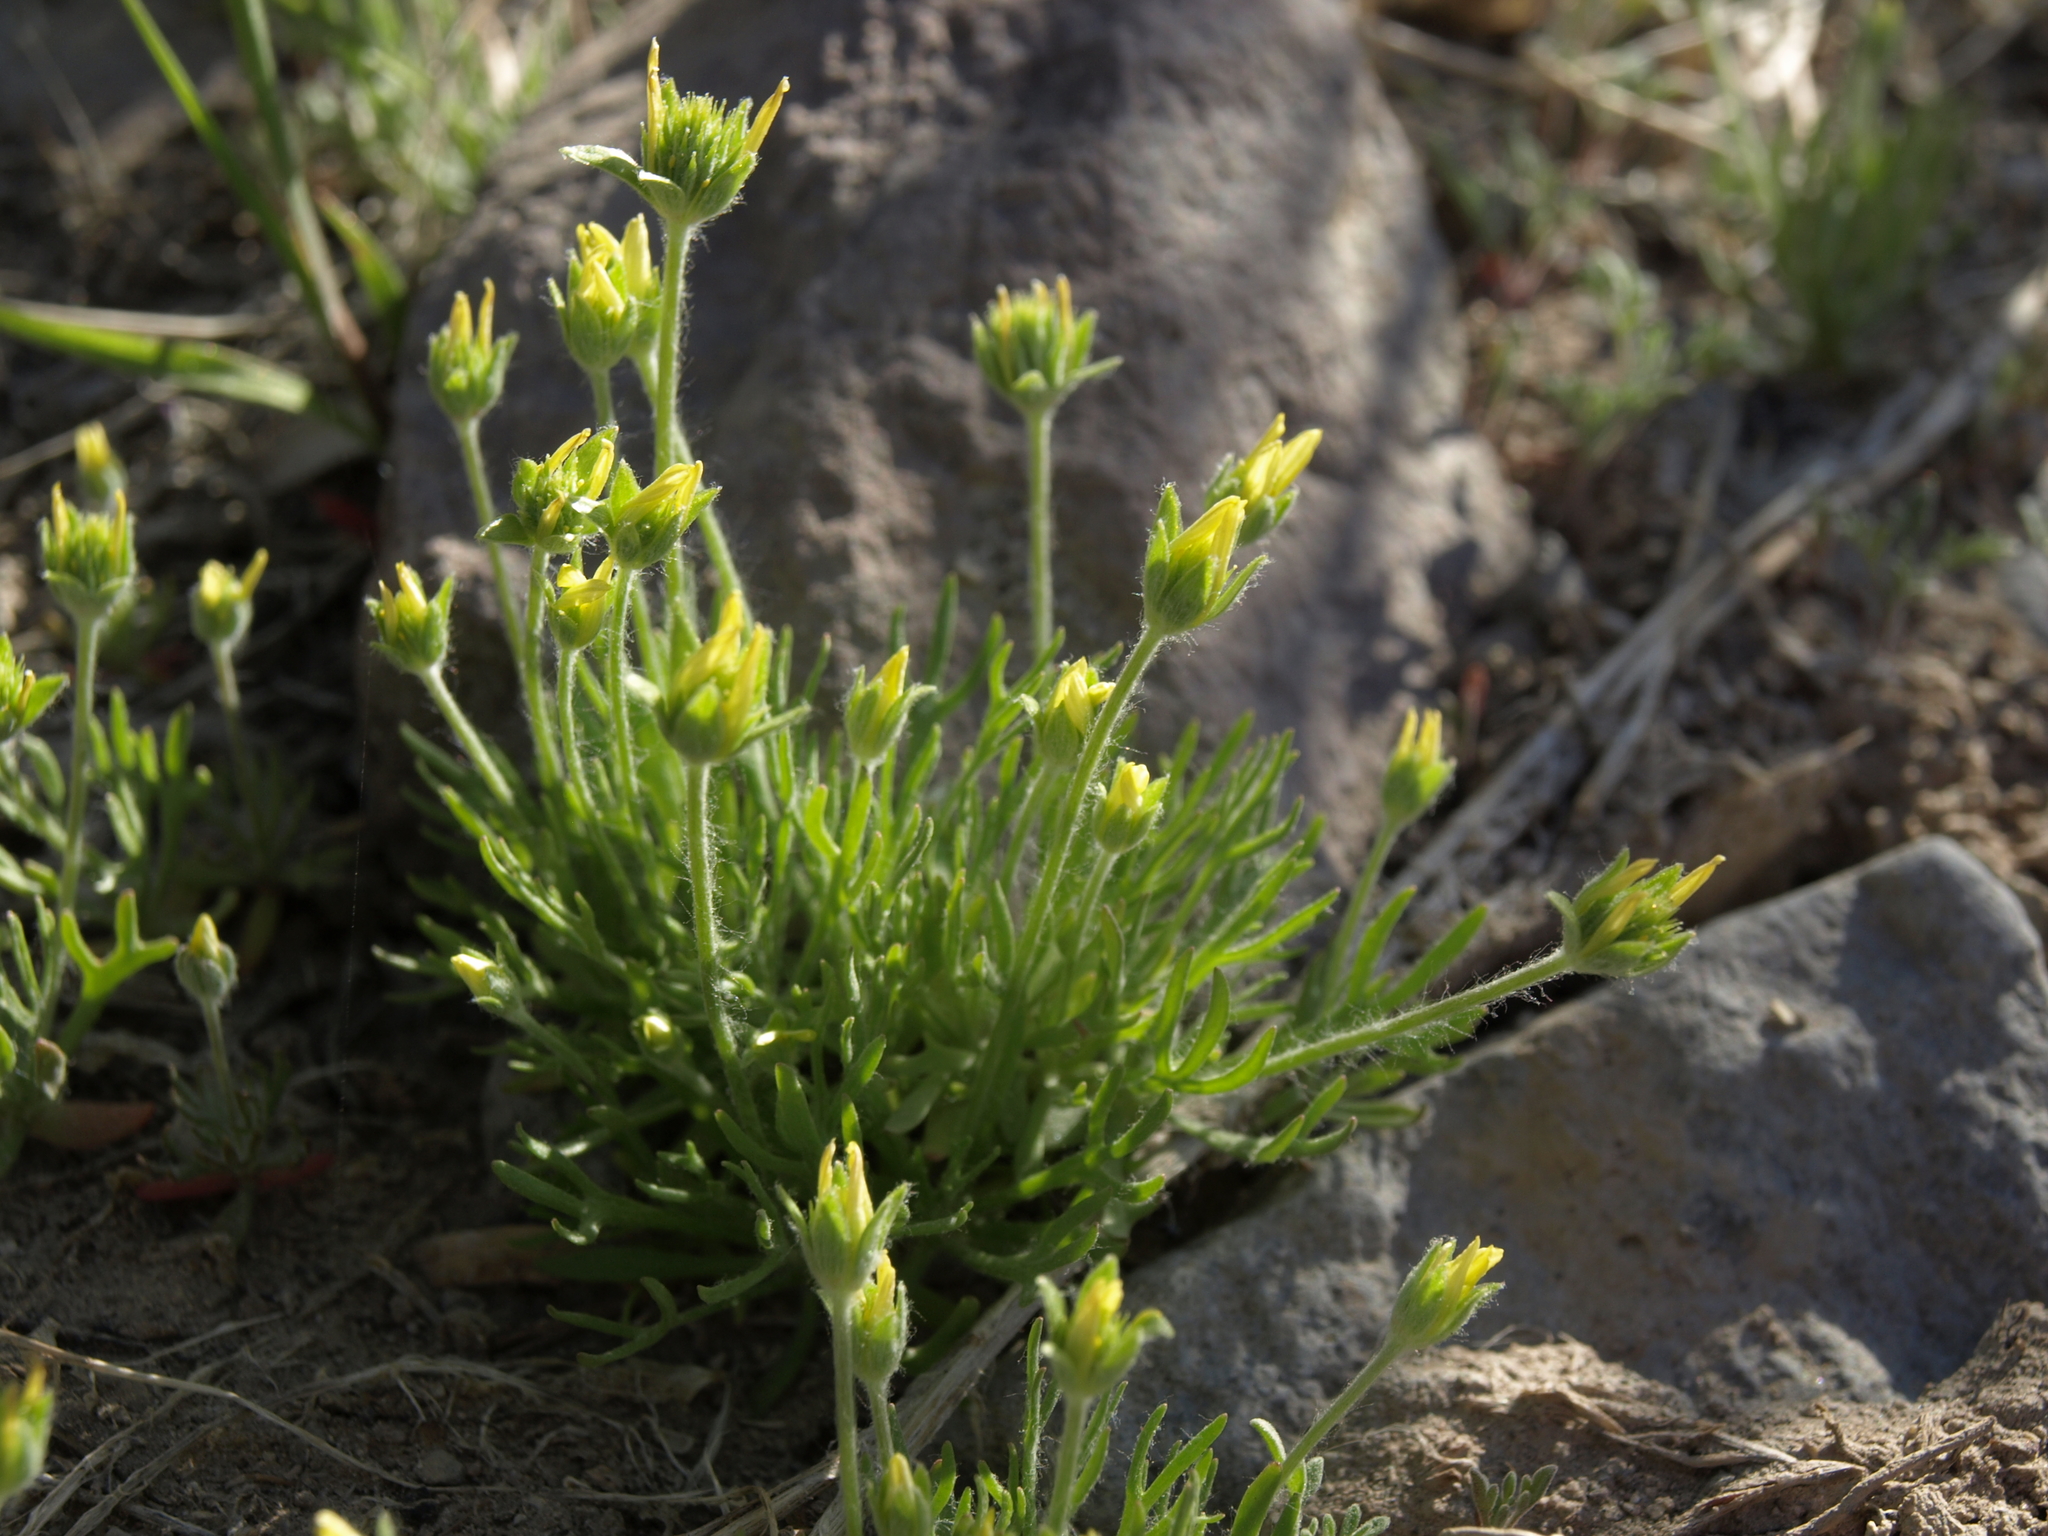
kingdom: Plantae
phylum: Tracheophyta
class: Magnoliopsida
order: Ranunculales
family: Ranunculaceae
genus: Ceratocephala
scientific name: Ceratocephala orthoceras
